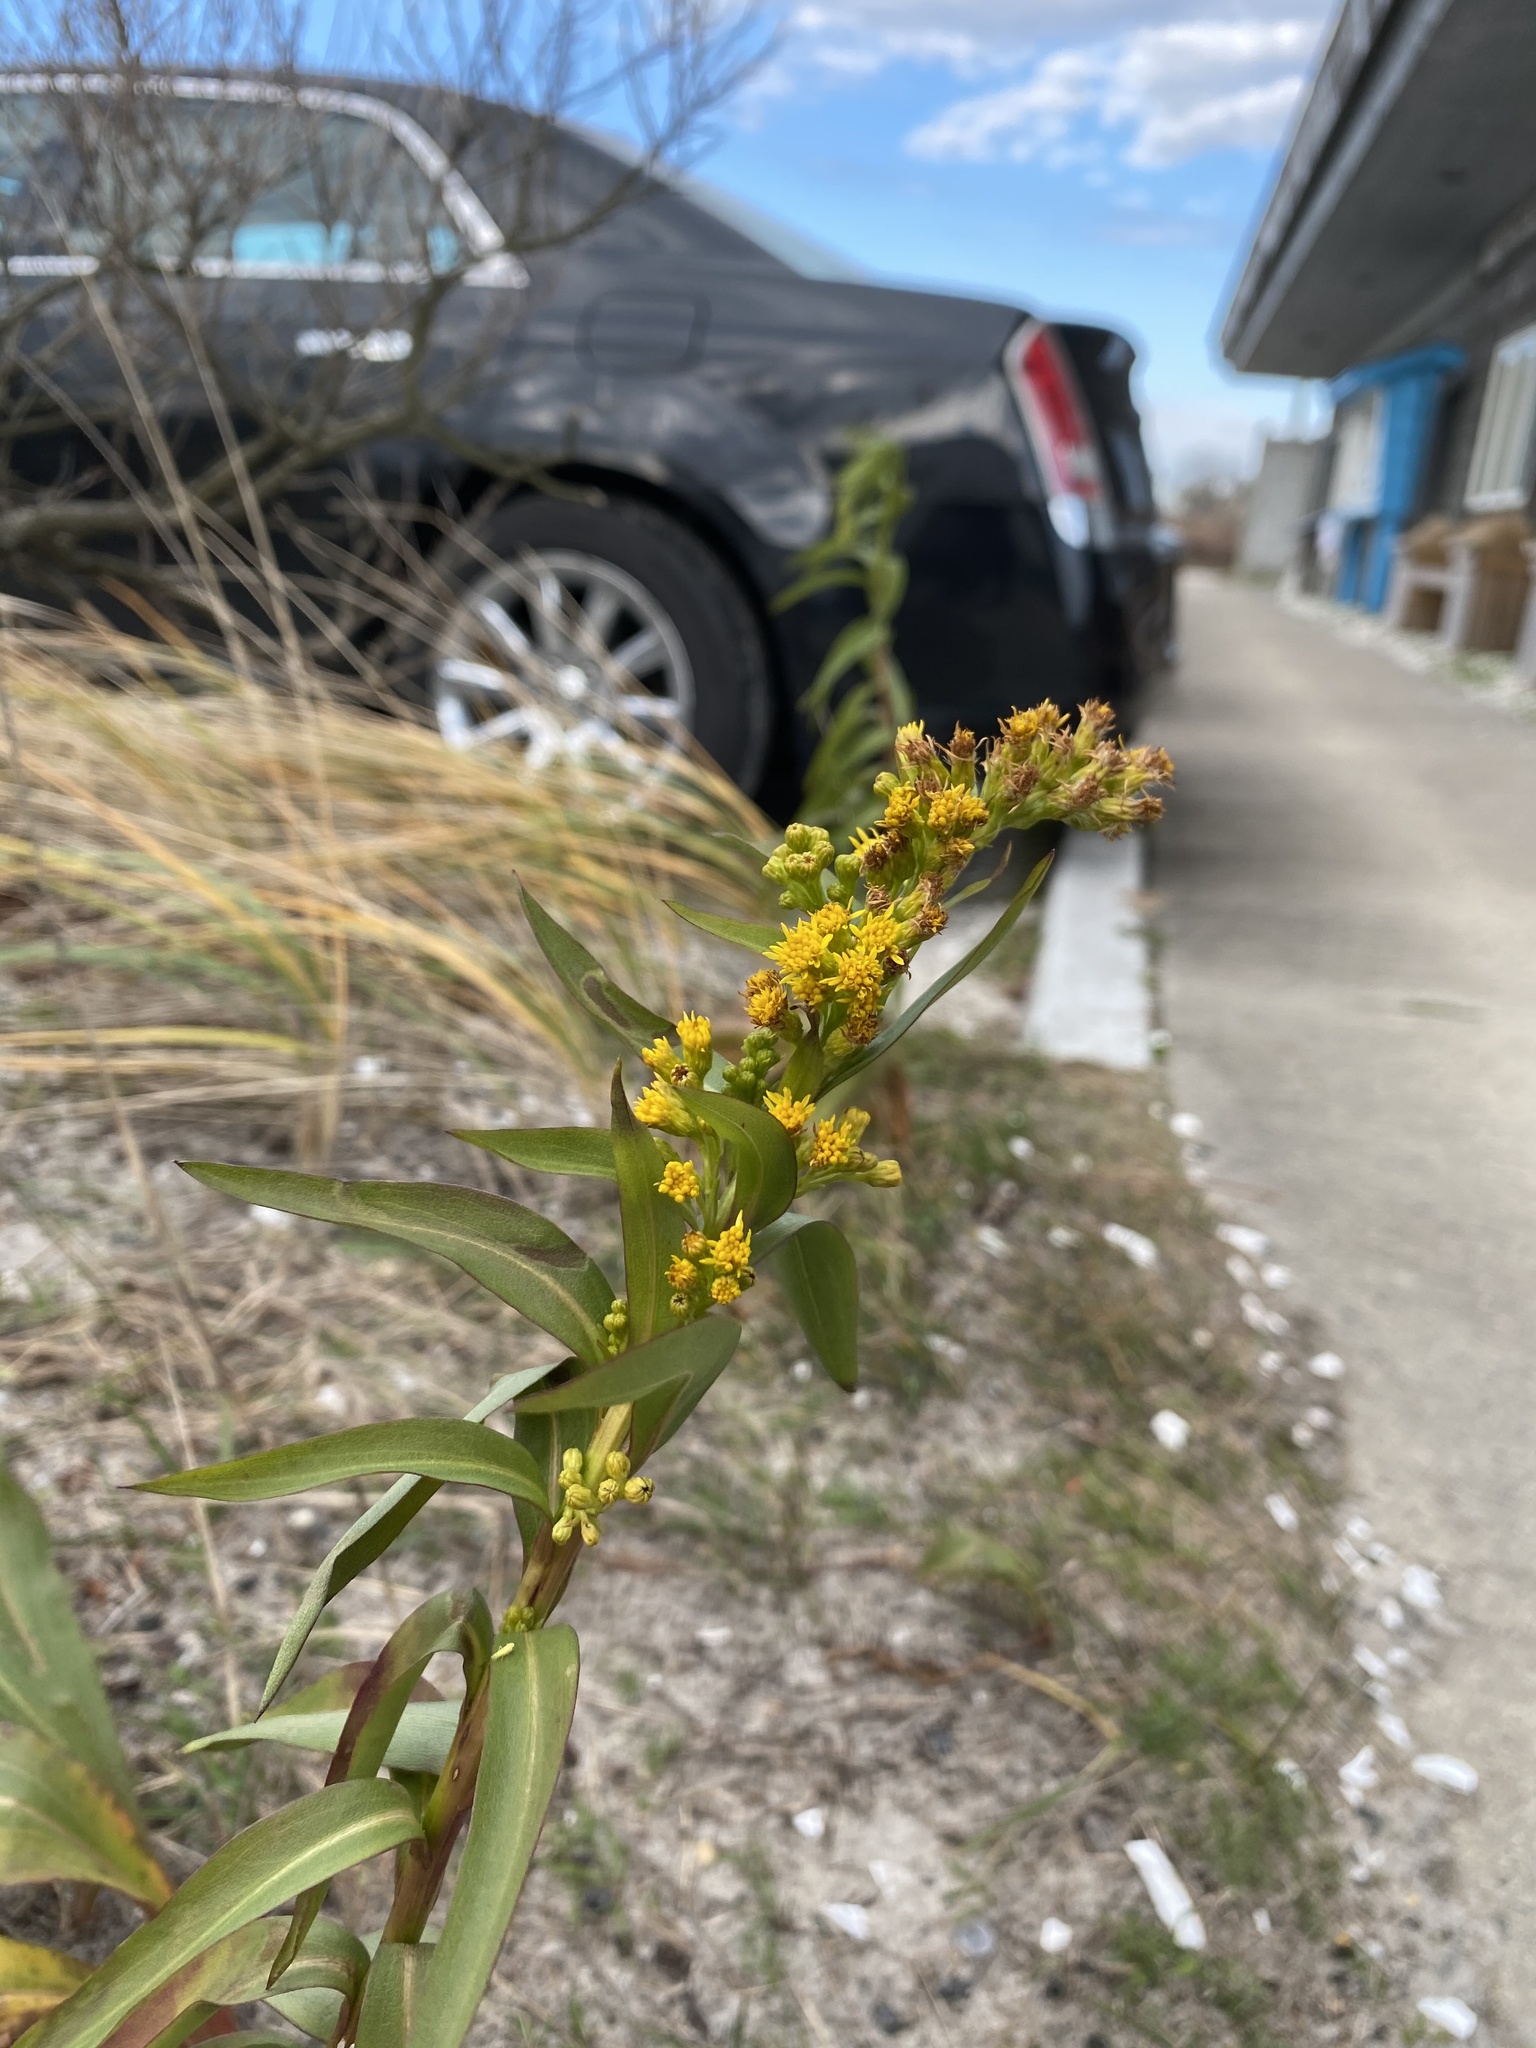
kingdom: Plantae
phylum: Tracheophyta
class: Magnoliopsida
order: Asterales
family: Asteraceae
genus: Solidago
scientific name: Solidago sempervirens
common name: Salt-marsh goldenrod
